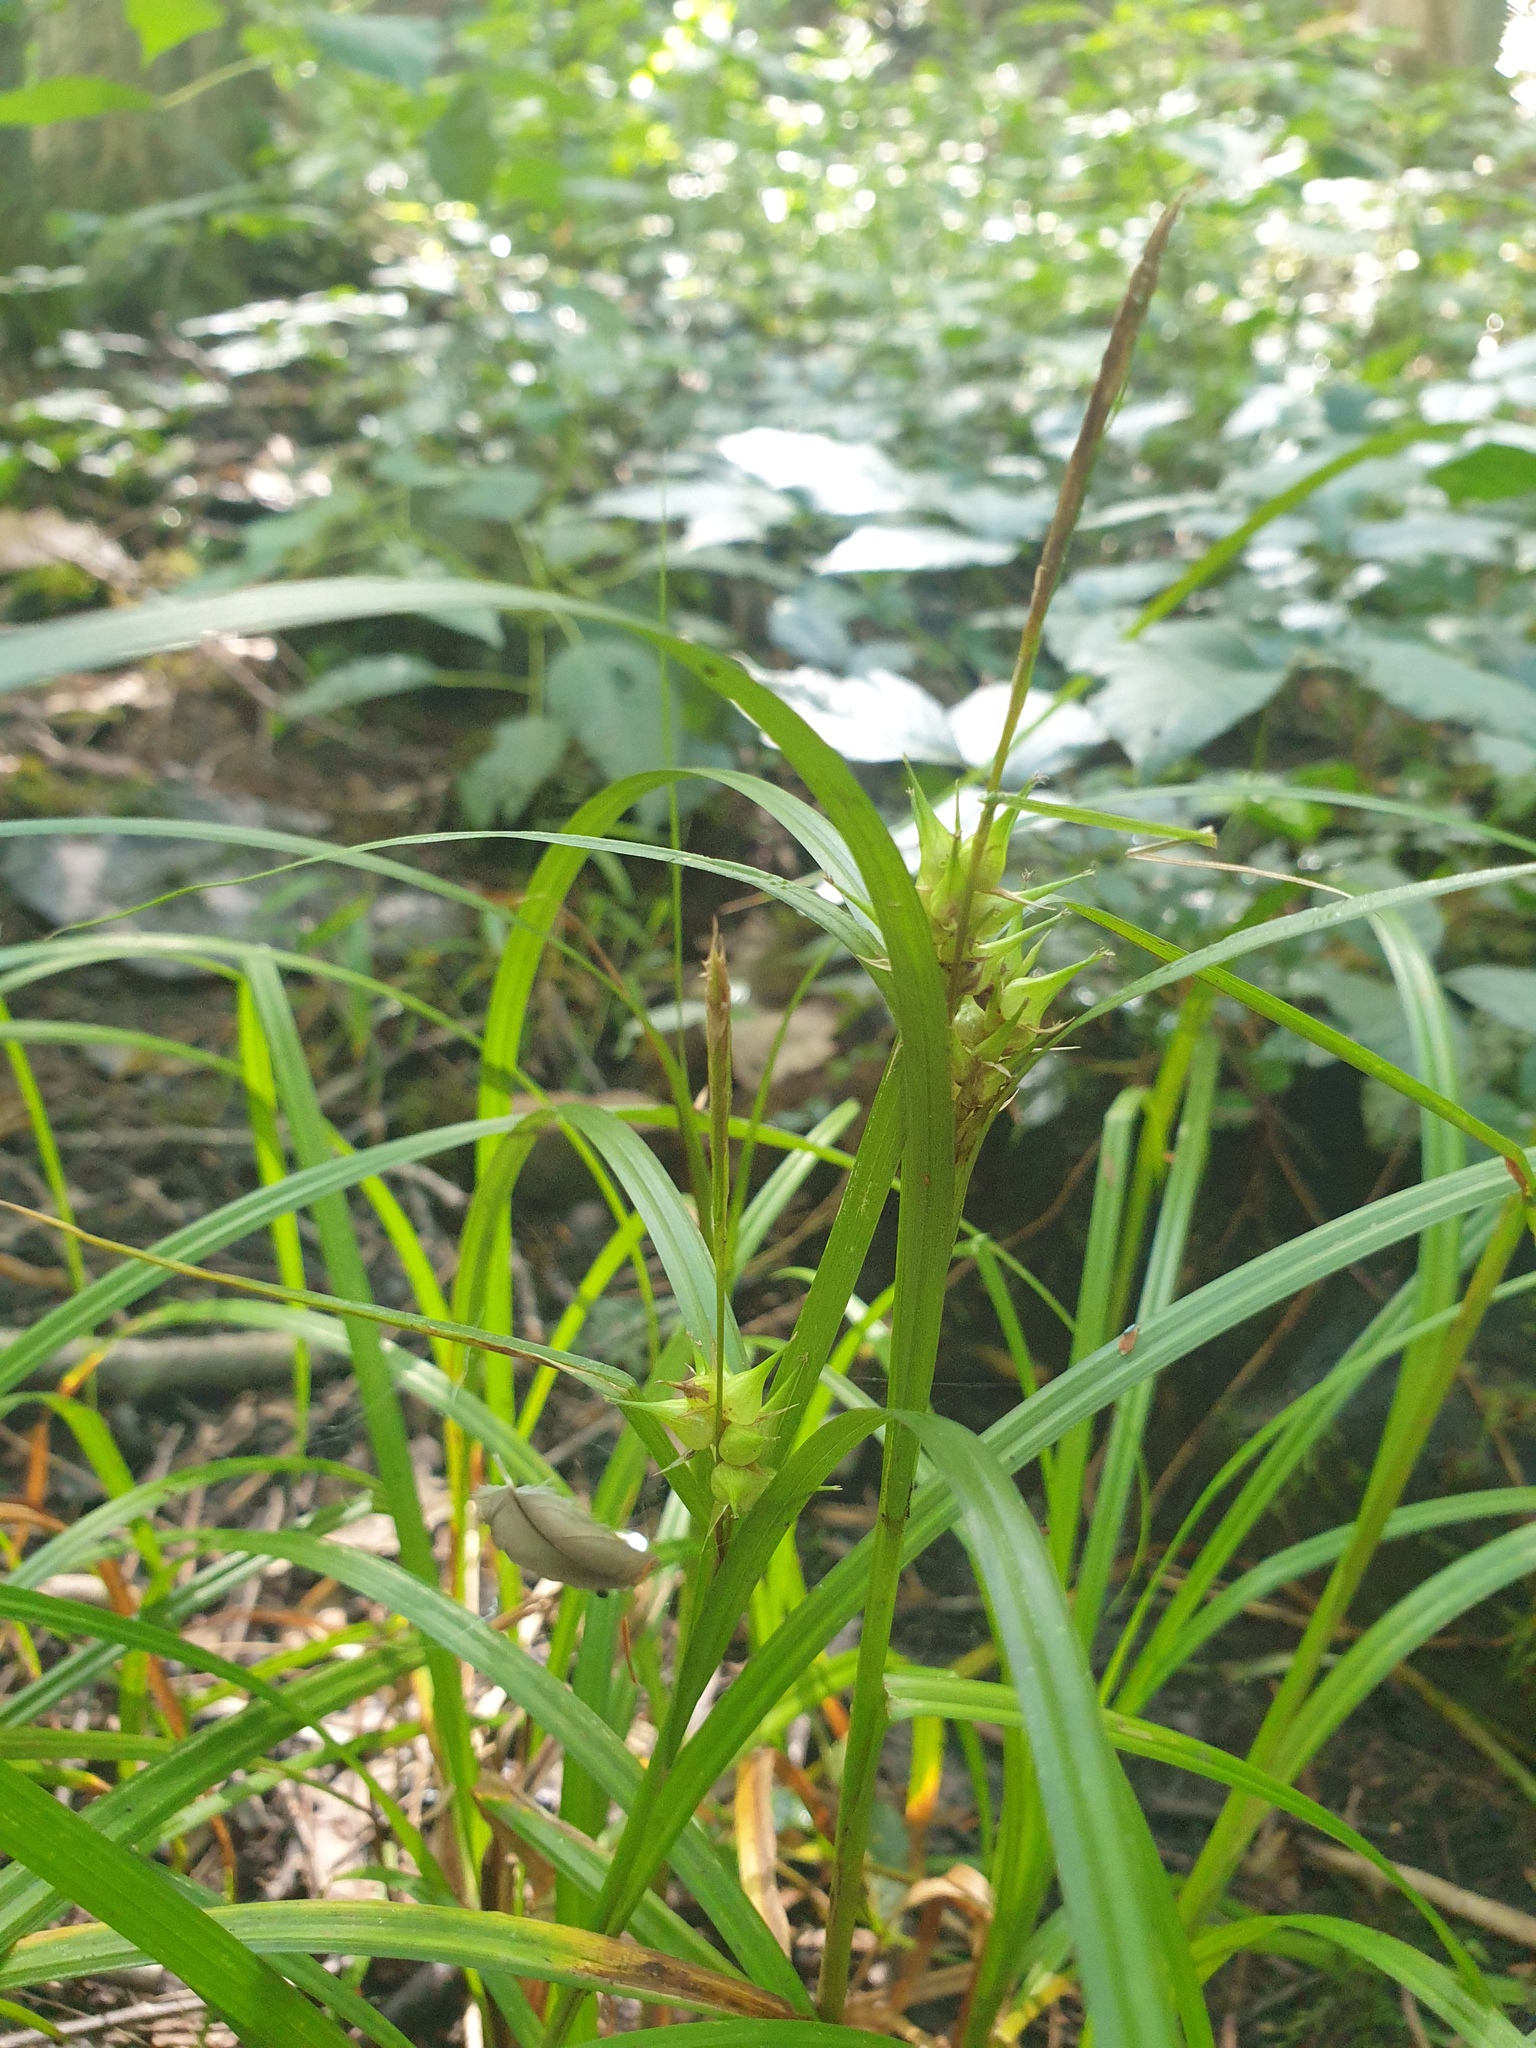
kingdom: Plantae
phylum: Tracheophyta
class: Liliopsida
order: Poales
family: Cyperaceae
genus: Carex
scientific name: Carex lupuliformis
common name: False hop sedge
